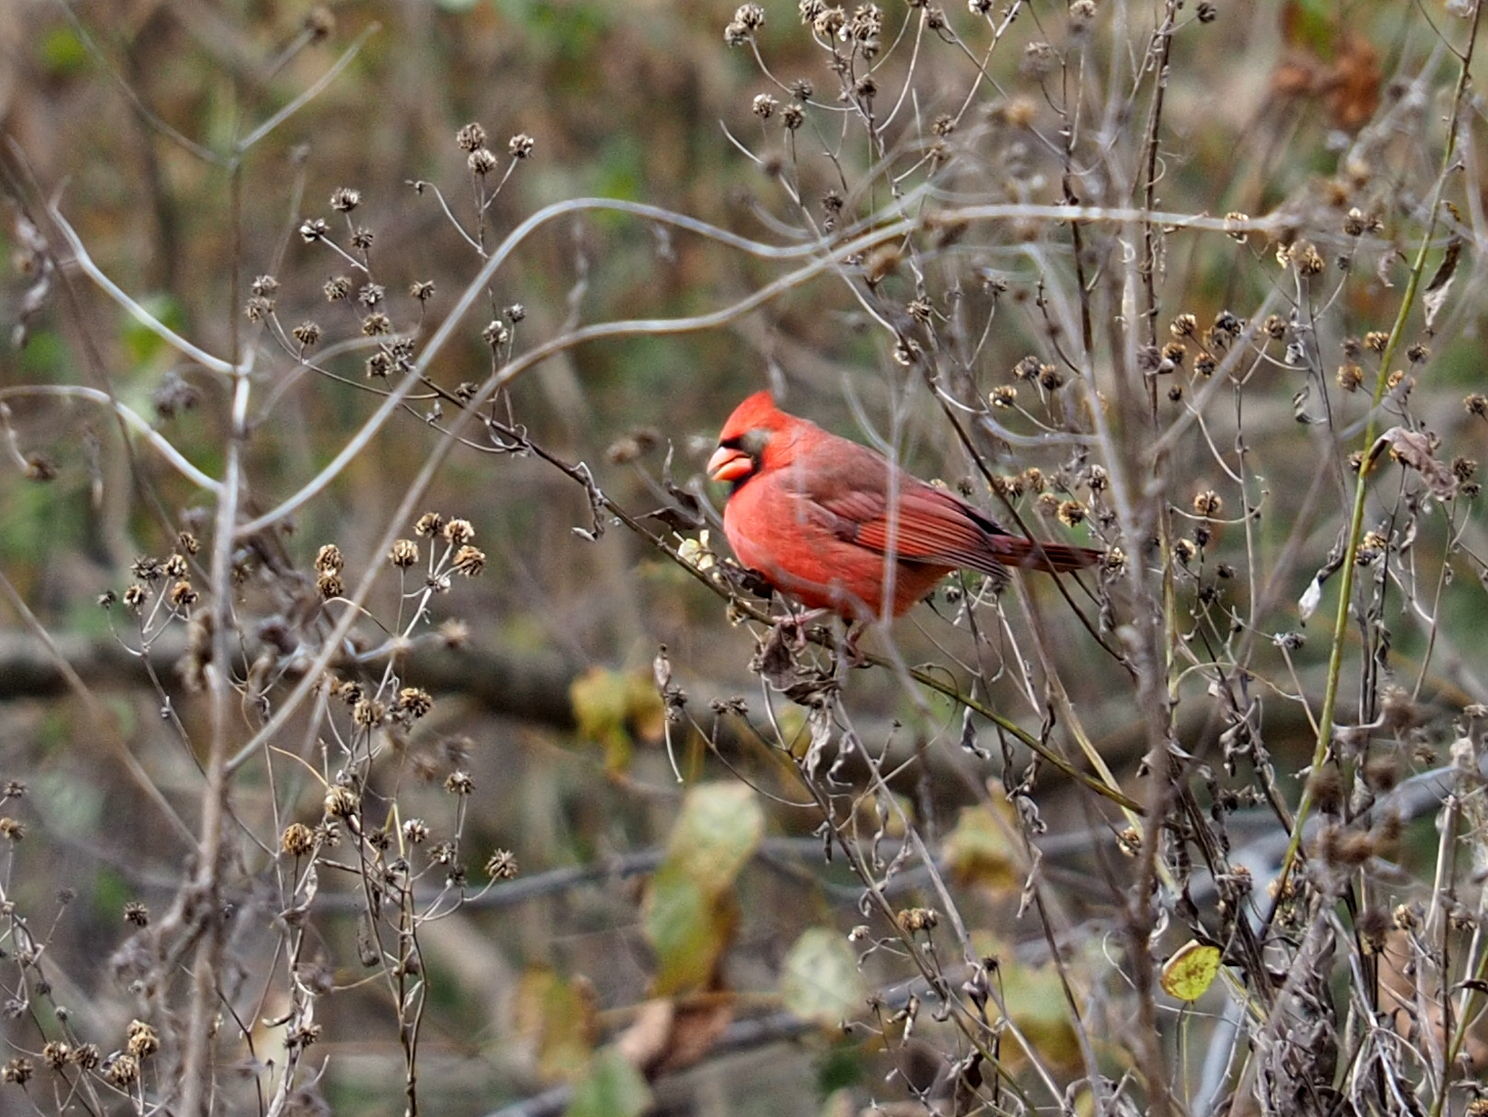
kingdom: Animalia
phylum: Chordata
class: Aves
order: Passeriformes
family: Cardinalidae
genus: Cardinalis
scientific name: Cardinalis cardinalis
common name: Northern cardinal
